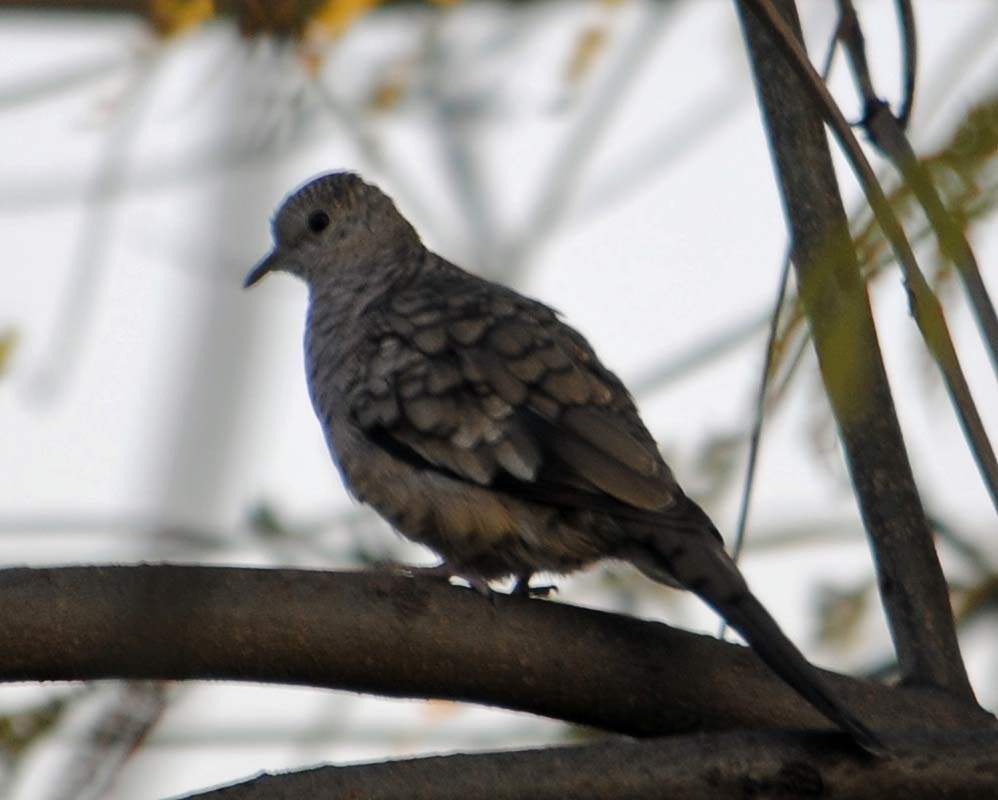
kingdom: Animalia
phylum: Chordata
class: Aves
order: Columbiformes
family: Columbidae
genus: Columbina
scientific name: Columbina inca
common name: Inca dove
